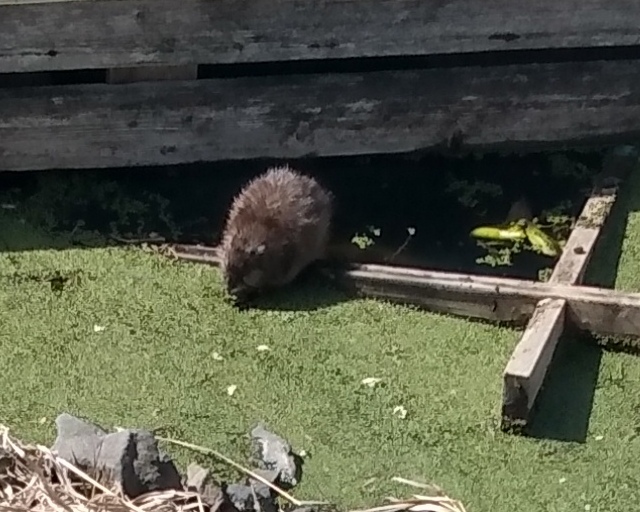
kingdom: Animalia
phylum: Chordata
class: Mammalia
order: Rodentia
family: Cricetidae
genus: Ondatra
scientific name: Ondatra zibethicus
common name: Muskrat
